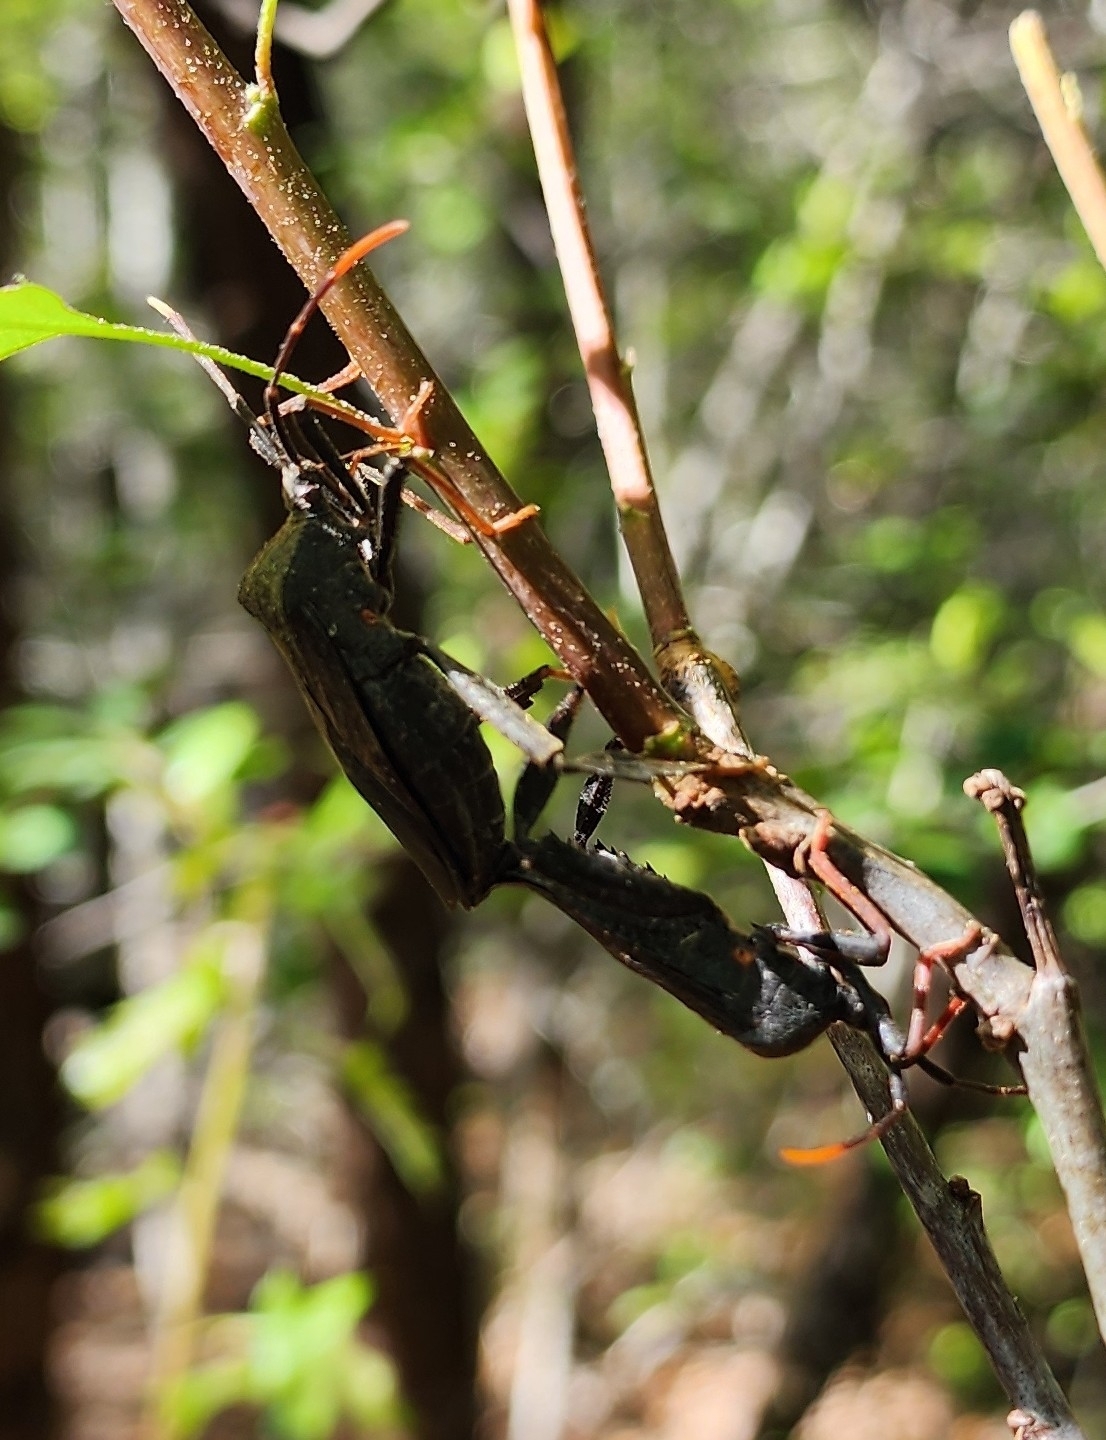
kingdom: Animalia
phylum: Arthropoda
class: Insecta
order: Hemiptera
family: Coreidae
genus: Acanthocephala
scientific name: Acanthocephala terminalis
